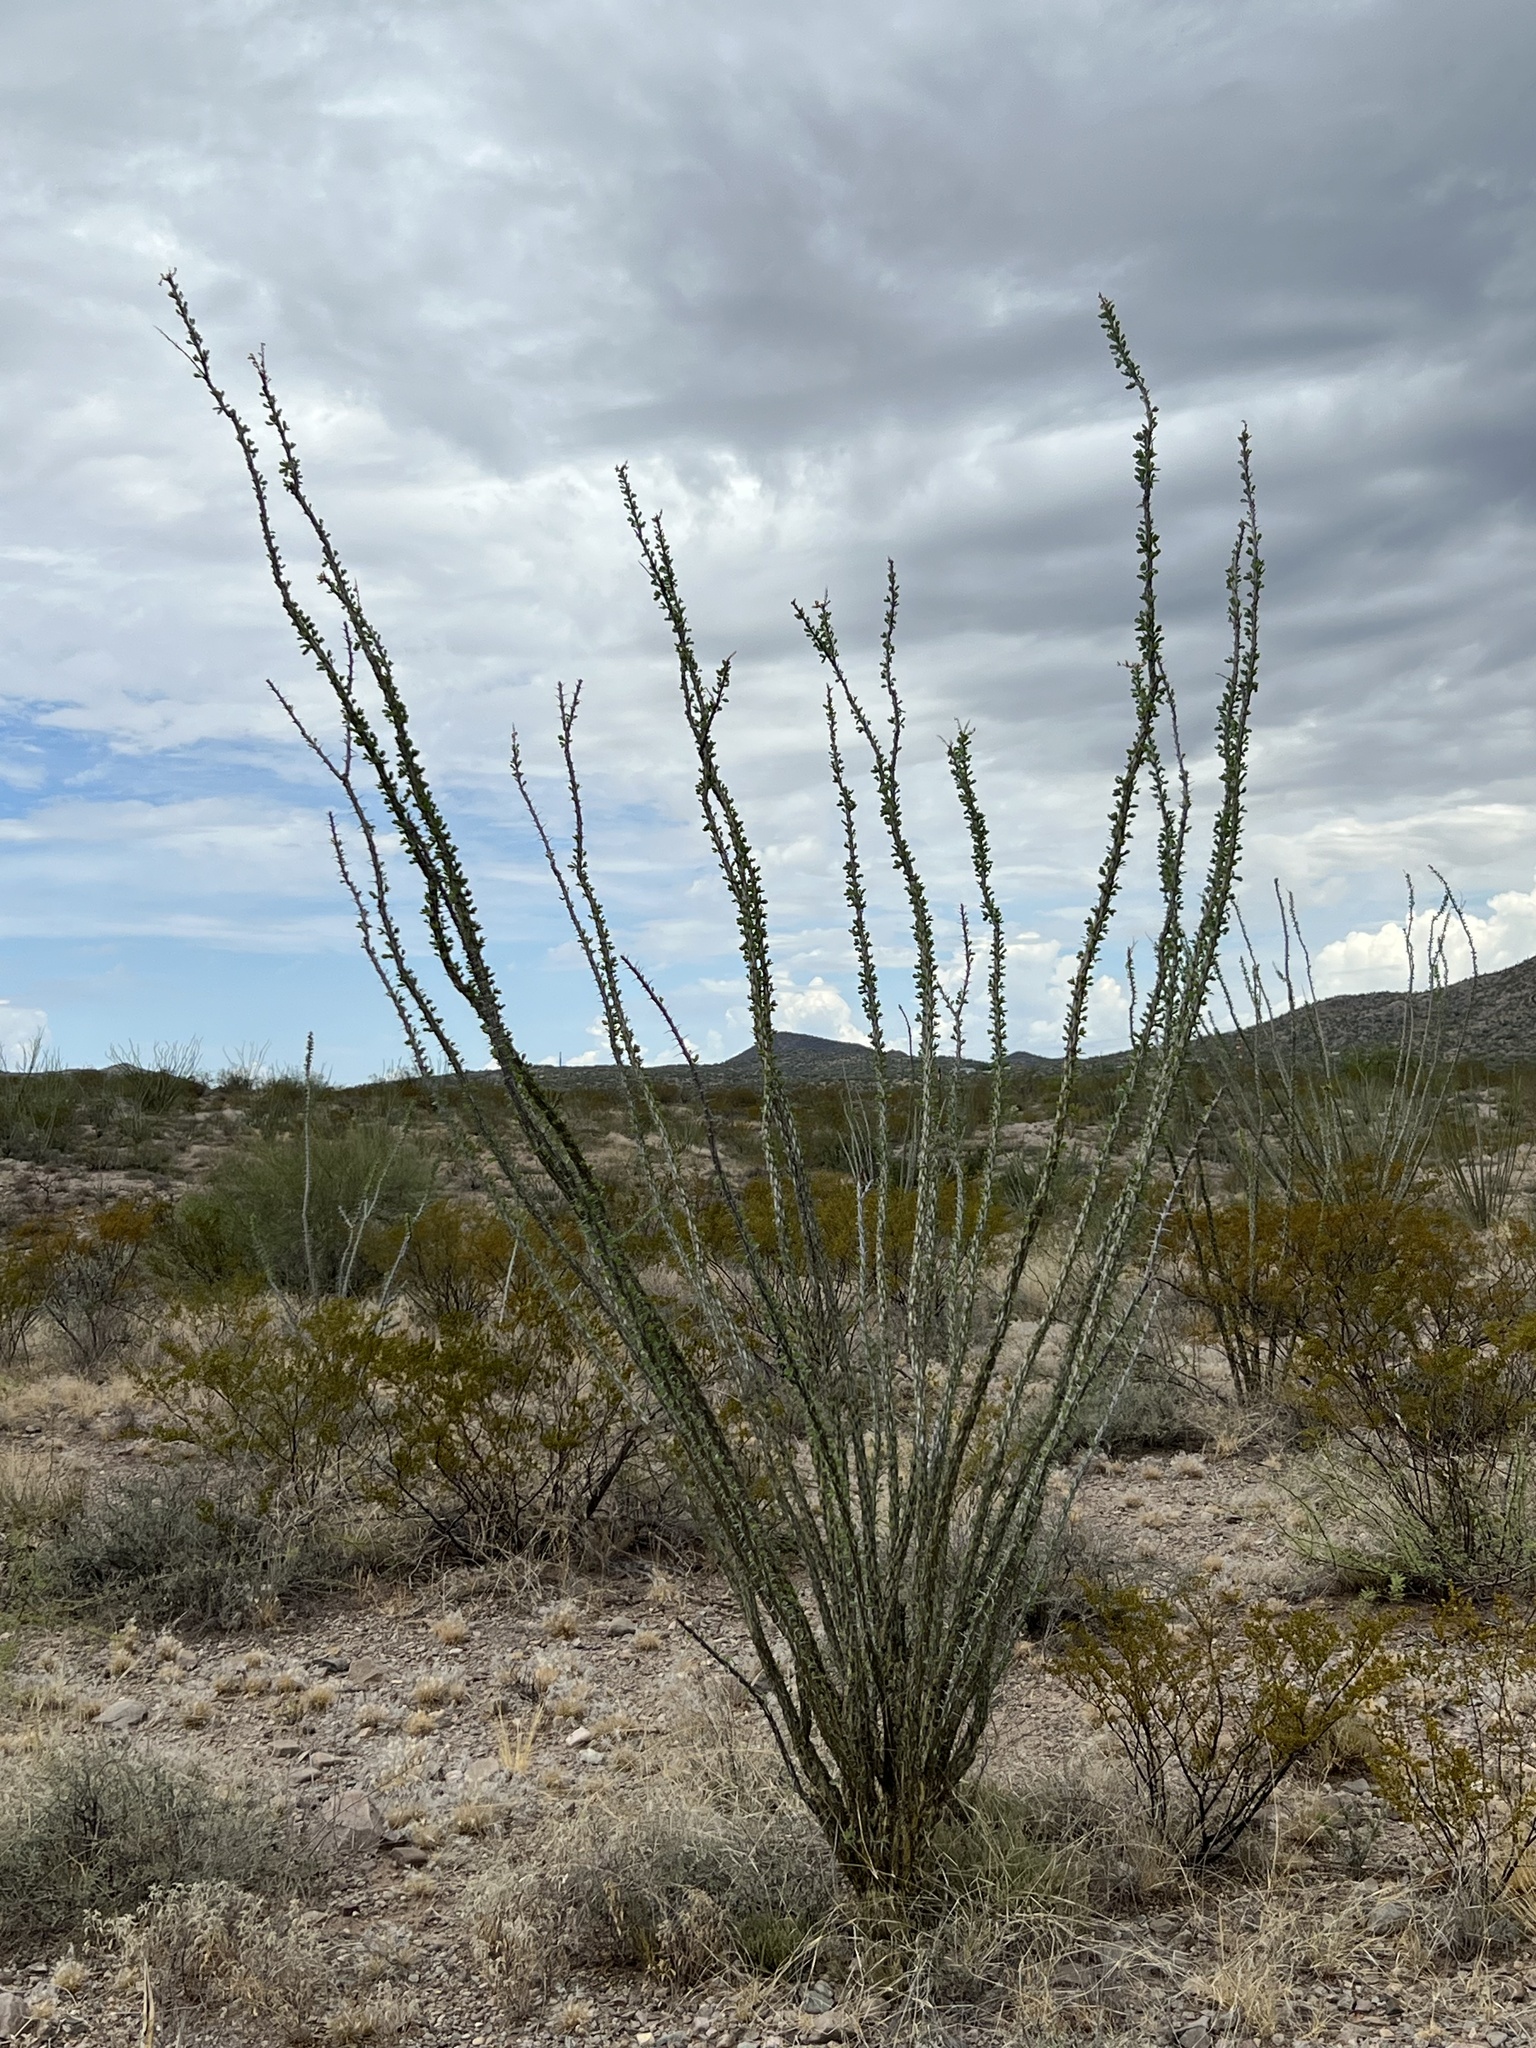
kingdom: Plantae
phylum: Tracheophyta
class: Magnoliopsida
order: Ericales
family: Fouquieriaceae
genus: Fouquieria
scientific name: Fouquieria splendens
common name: Vine-cactus
